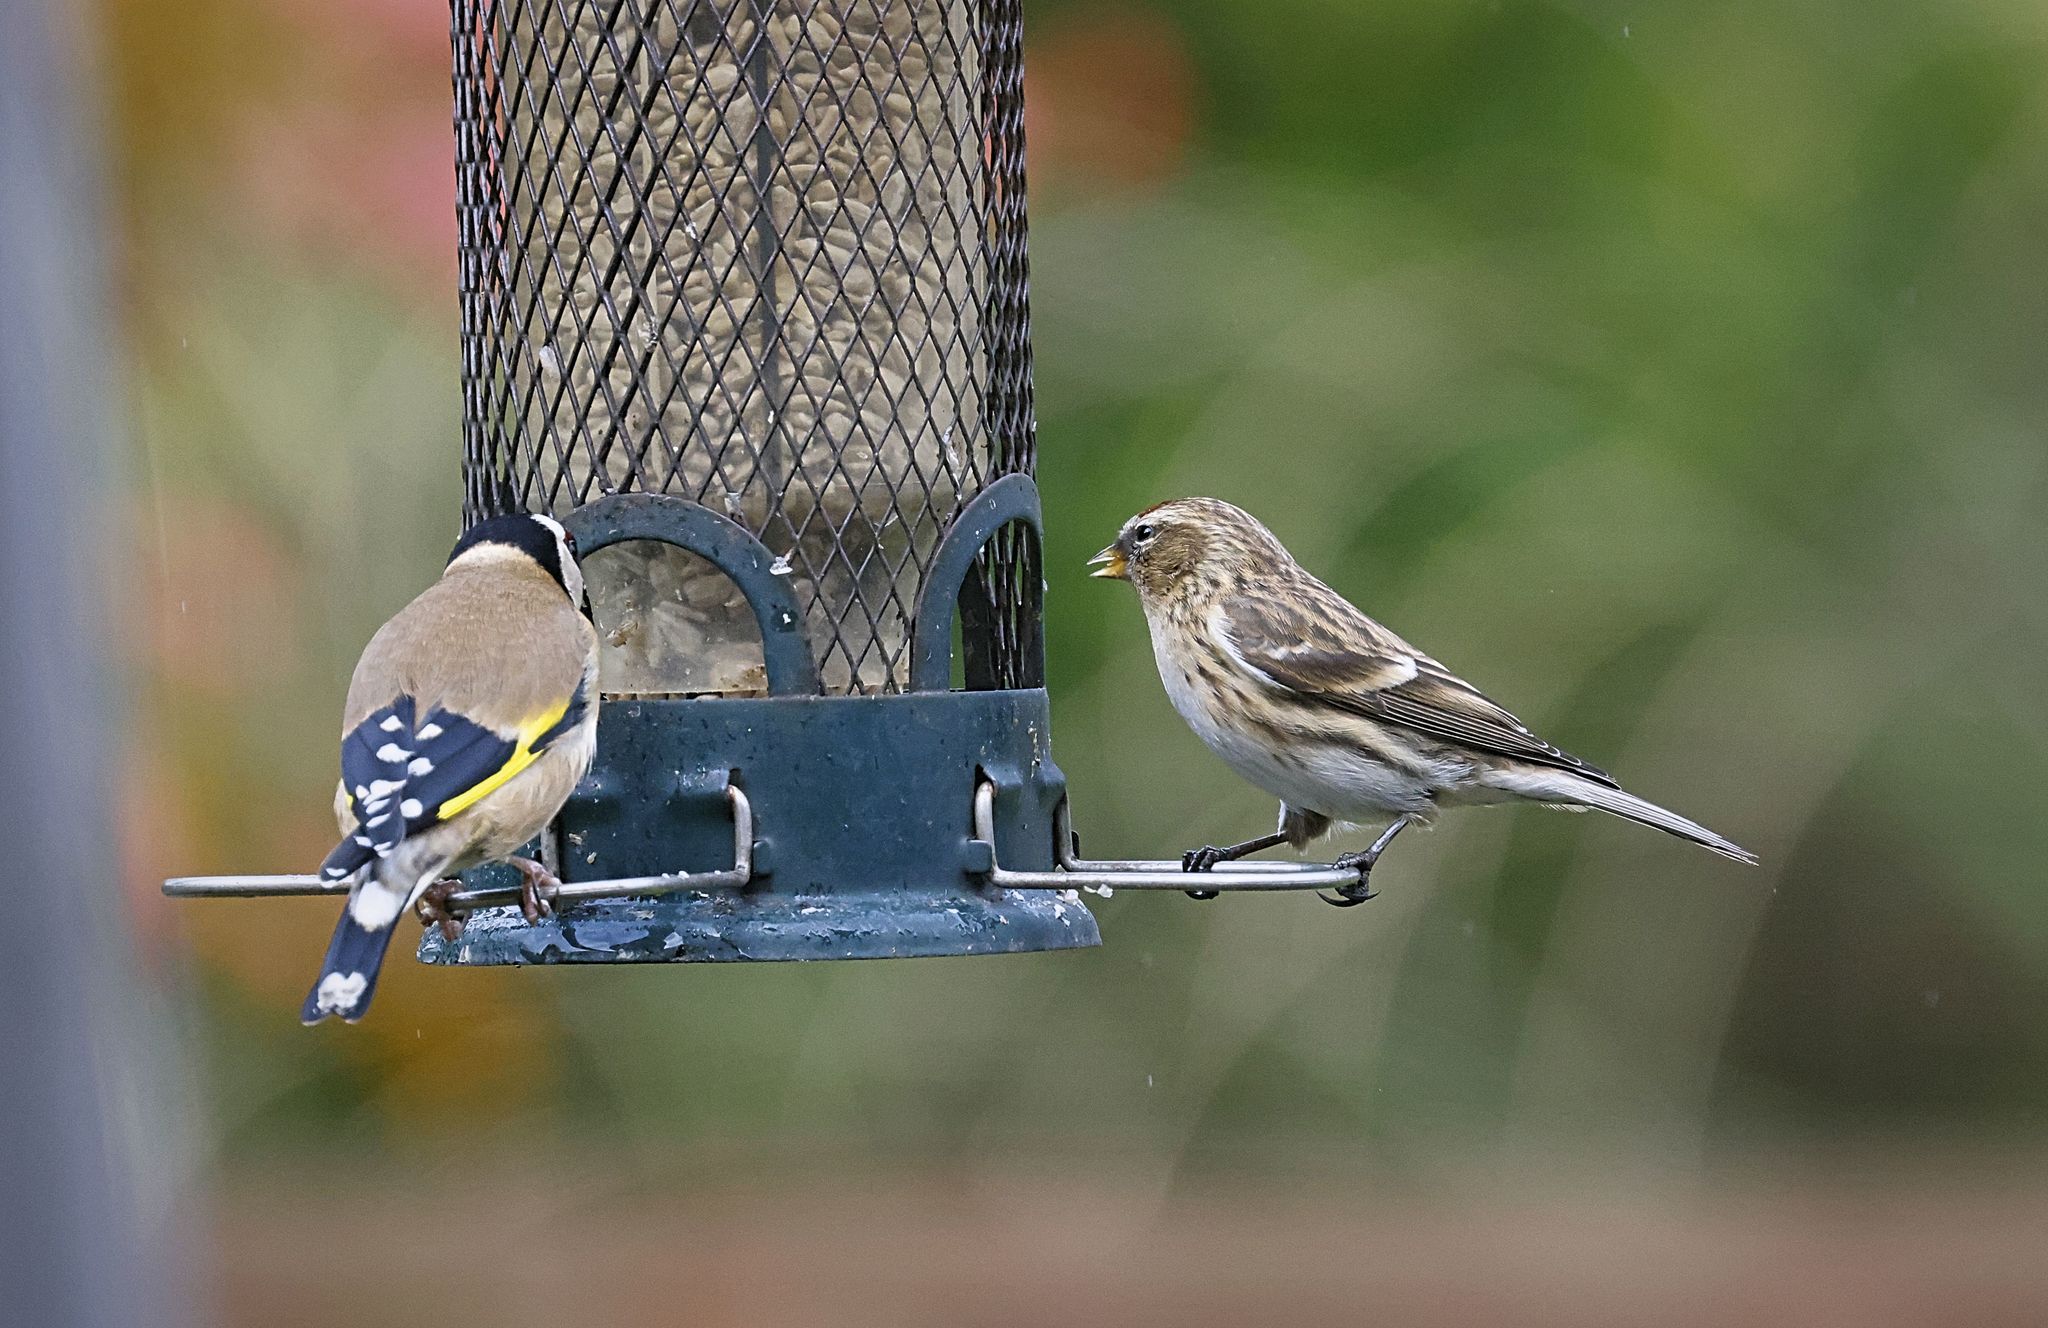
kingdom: Animalia
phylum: Chordata
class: Aves
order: Passeriformes
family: Fringillidae
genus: Acanthis
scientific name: Acanthis flammea
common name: Common redpoll
